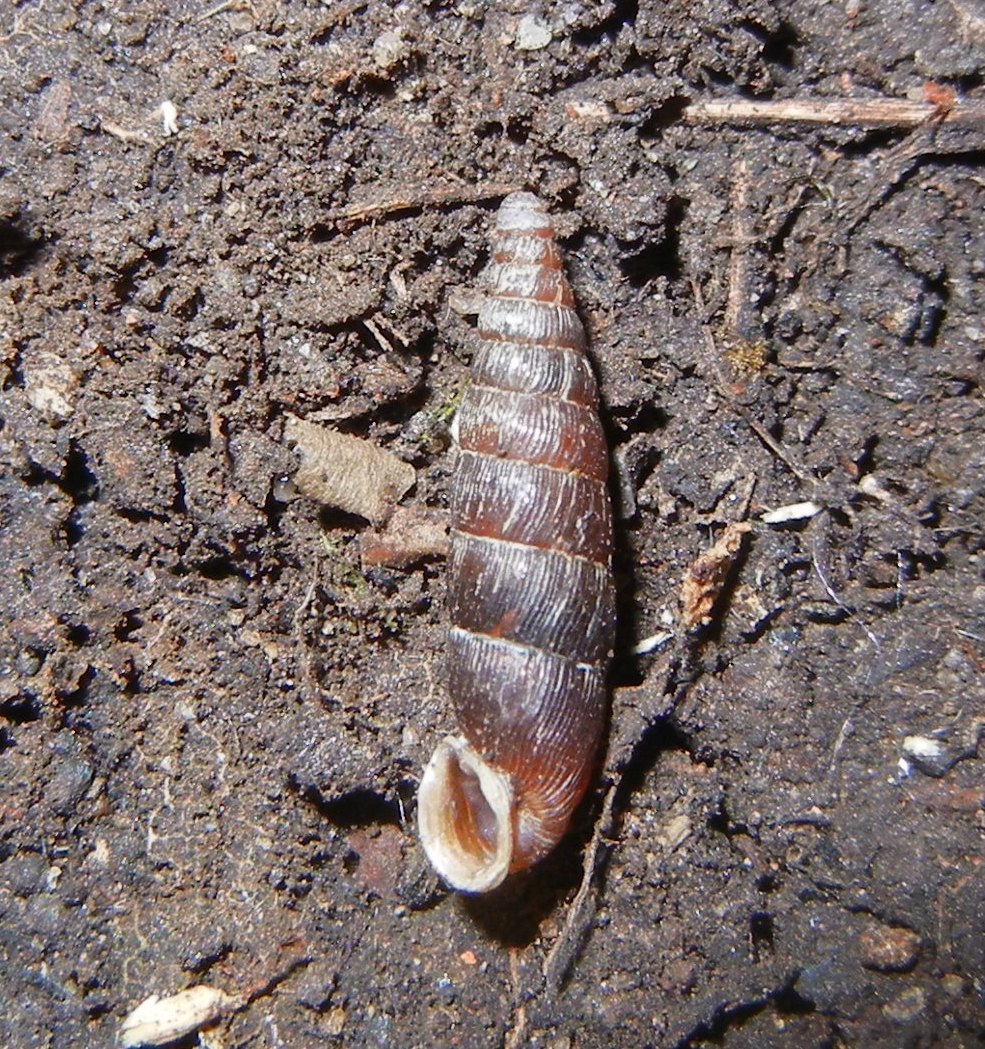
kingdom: Animalia
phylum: Mollusca
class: Gastropoda
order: Stylommatophora
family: Clausiliidae
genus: Clausilia
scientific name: Clausilia bidentata
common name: Two-toothed door snail
